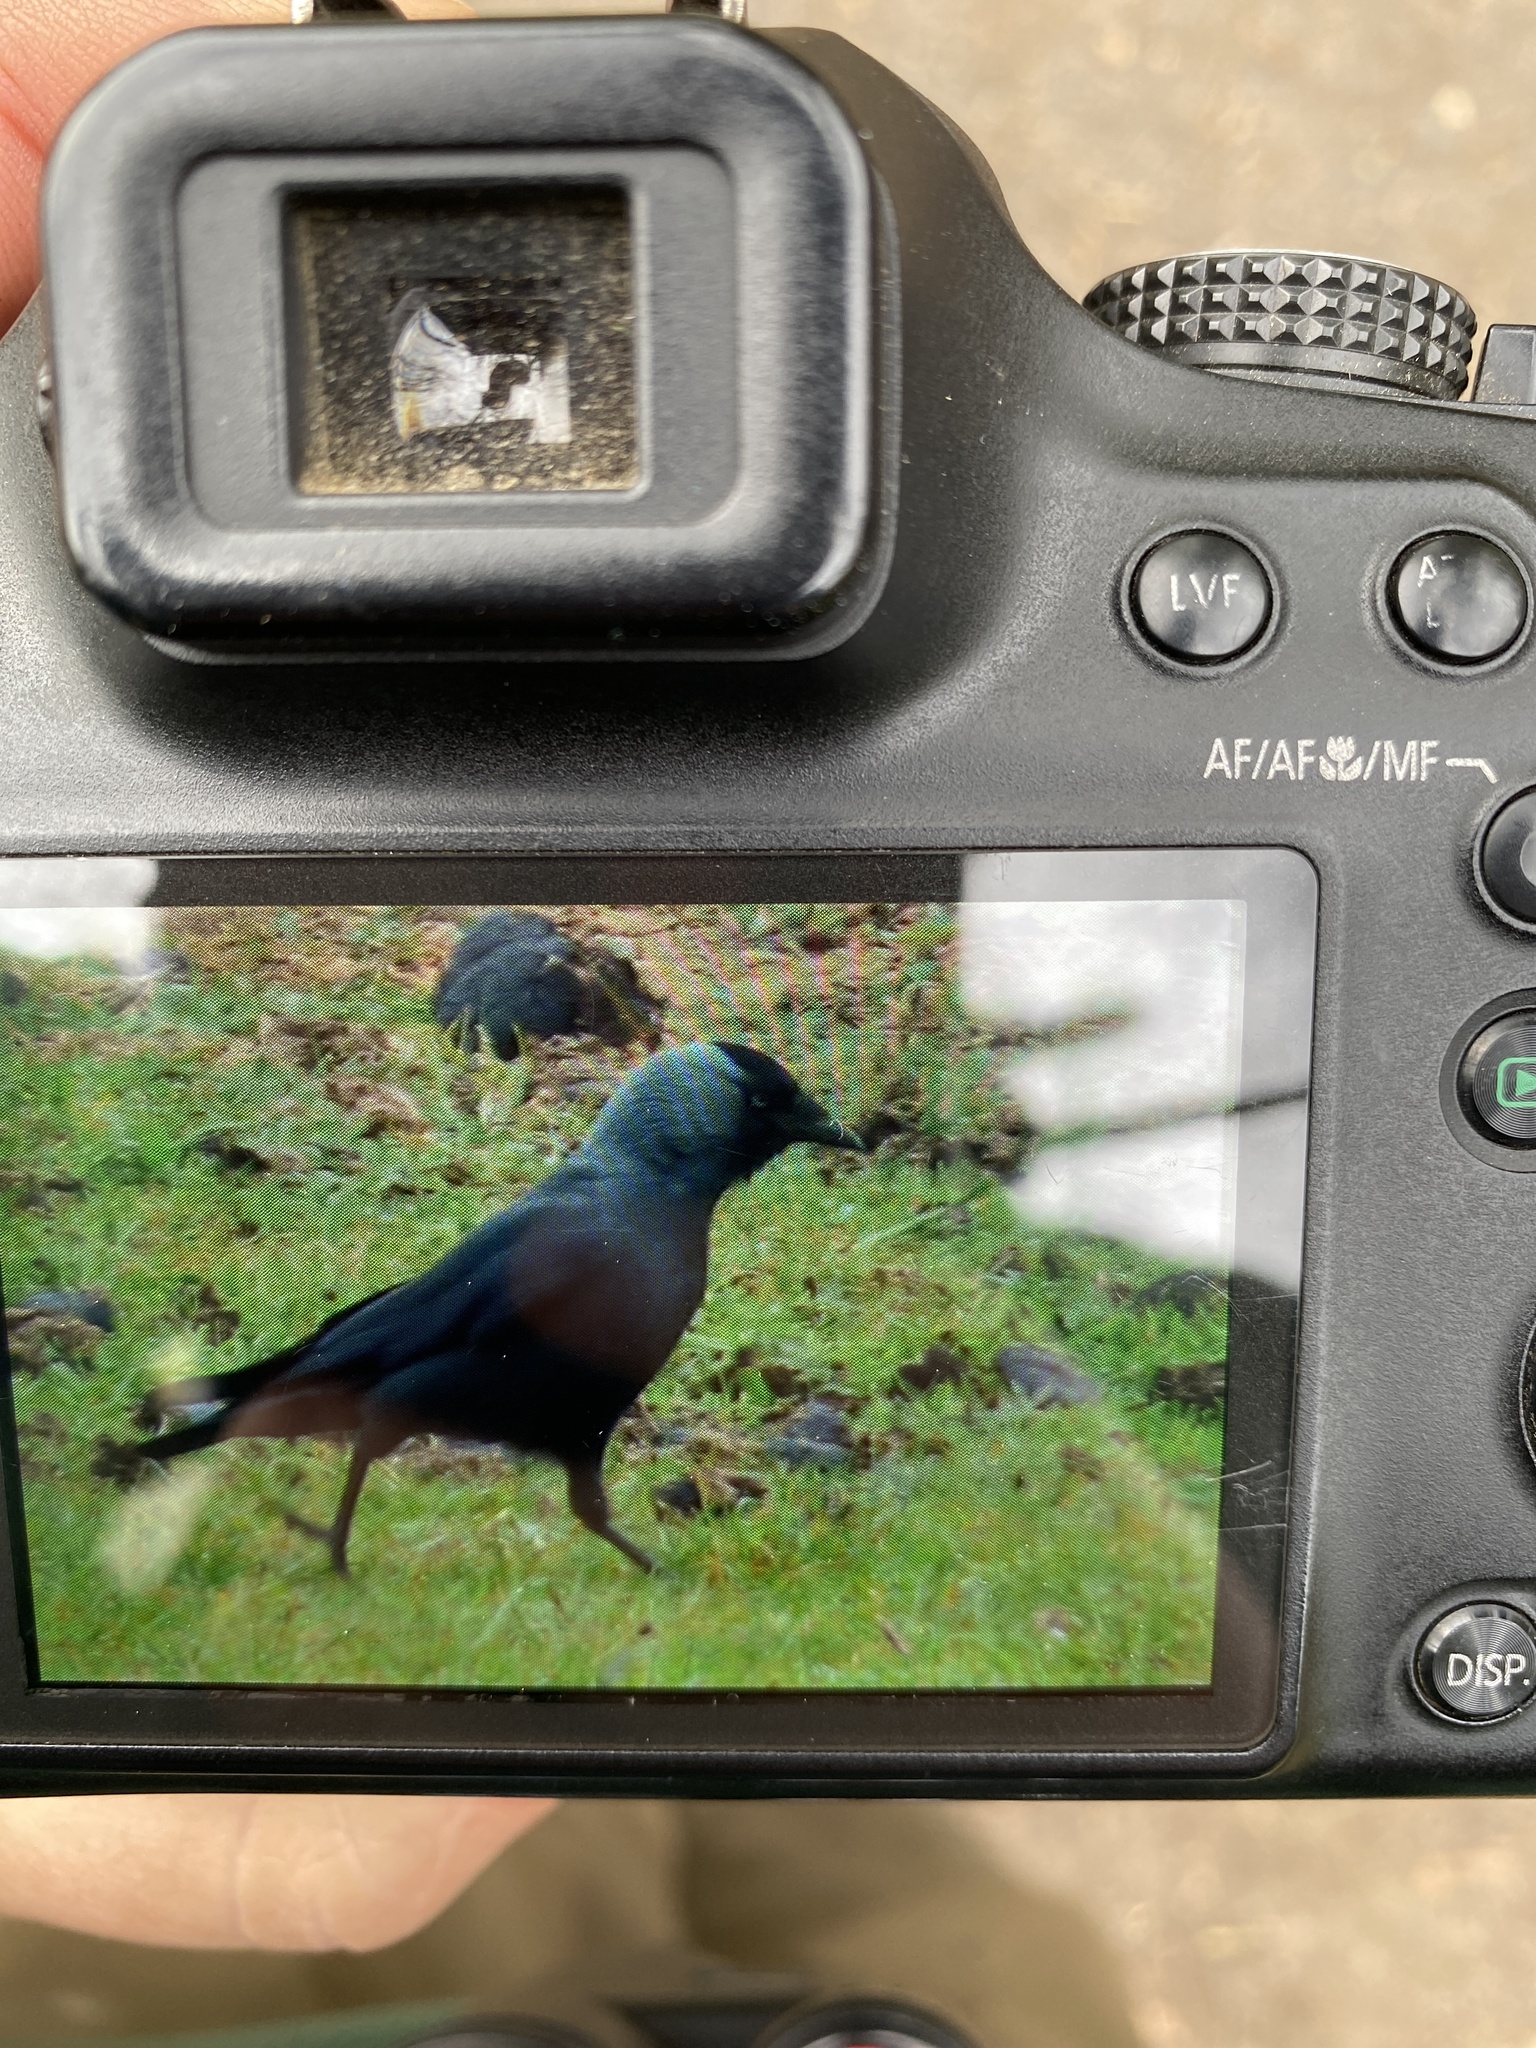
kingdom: Animalia
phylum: Chordata
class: Aves
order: Passeriformes
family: Corvidae
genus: Coloeus
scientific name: Coloeus monedula
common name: Western jackdaw
